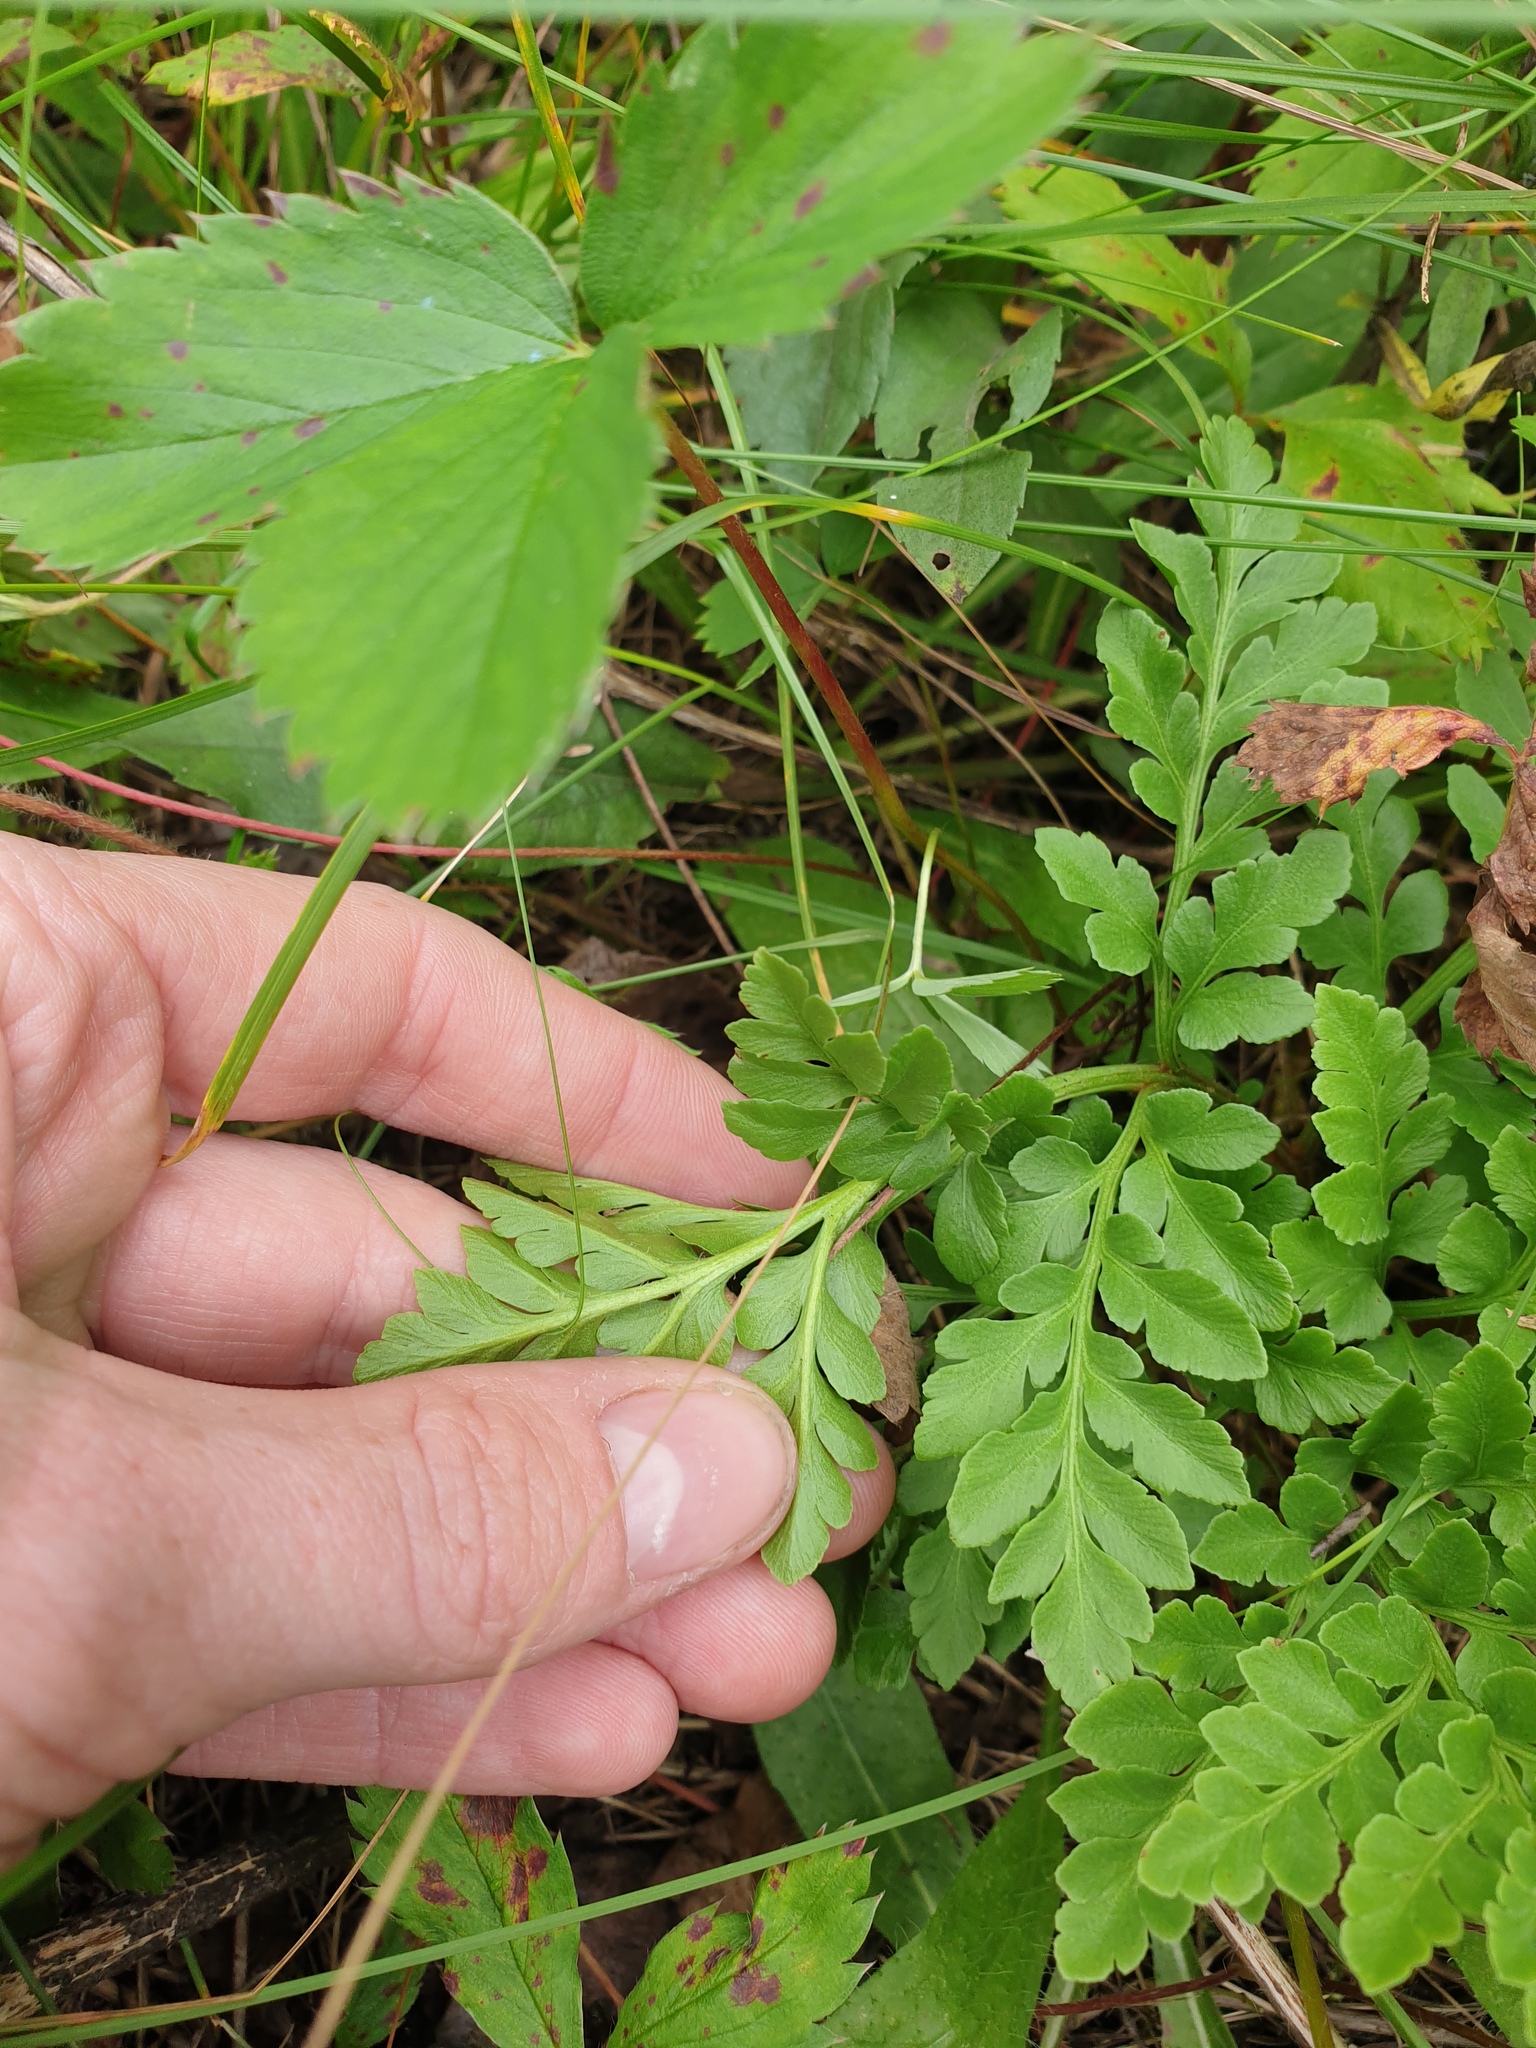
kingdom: Plantae
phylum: Tracheophyta
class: Polypodiopsida
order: Ophioglossales
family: Ophioglossaceae
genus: Sceptridium
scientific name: Sceptridium multifidum
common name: Leathery grape fern
